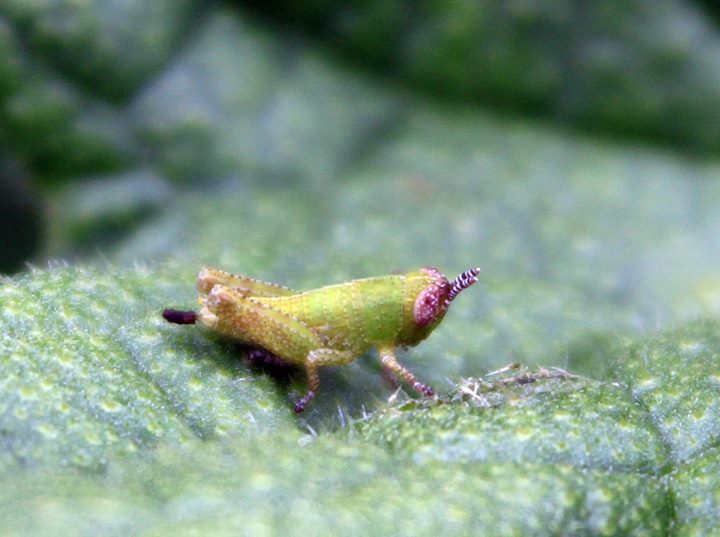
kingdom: Animalia
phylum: Arthropoda
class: Insecta
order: Orthoptera
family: Acrididae
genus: Pezotettix
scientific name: Pezotettix giornae
